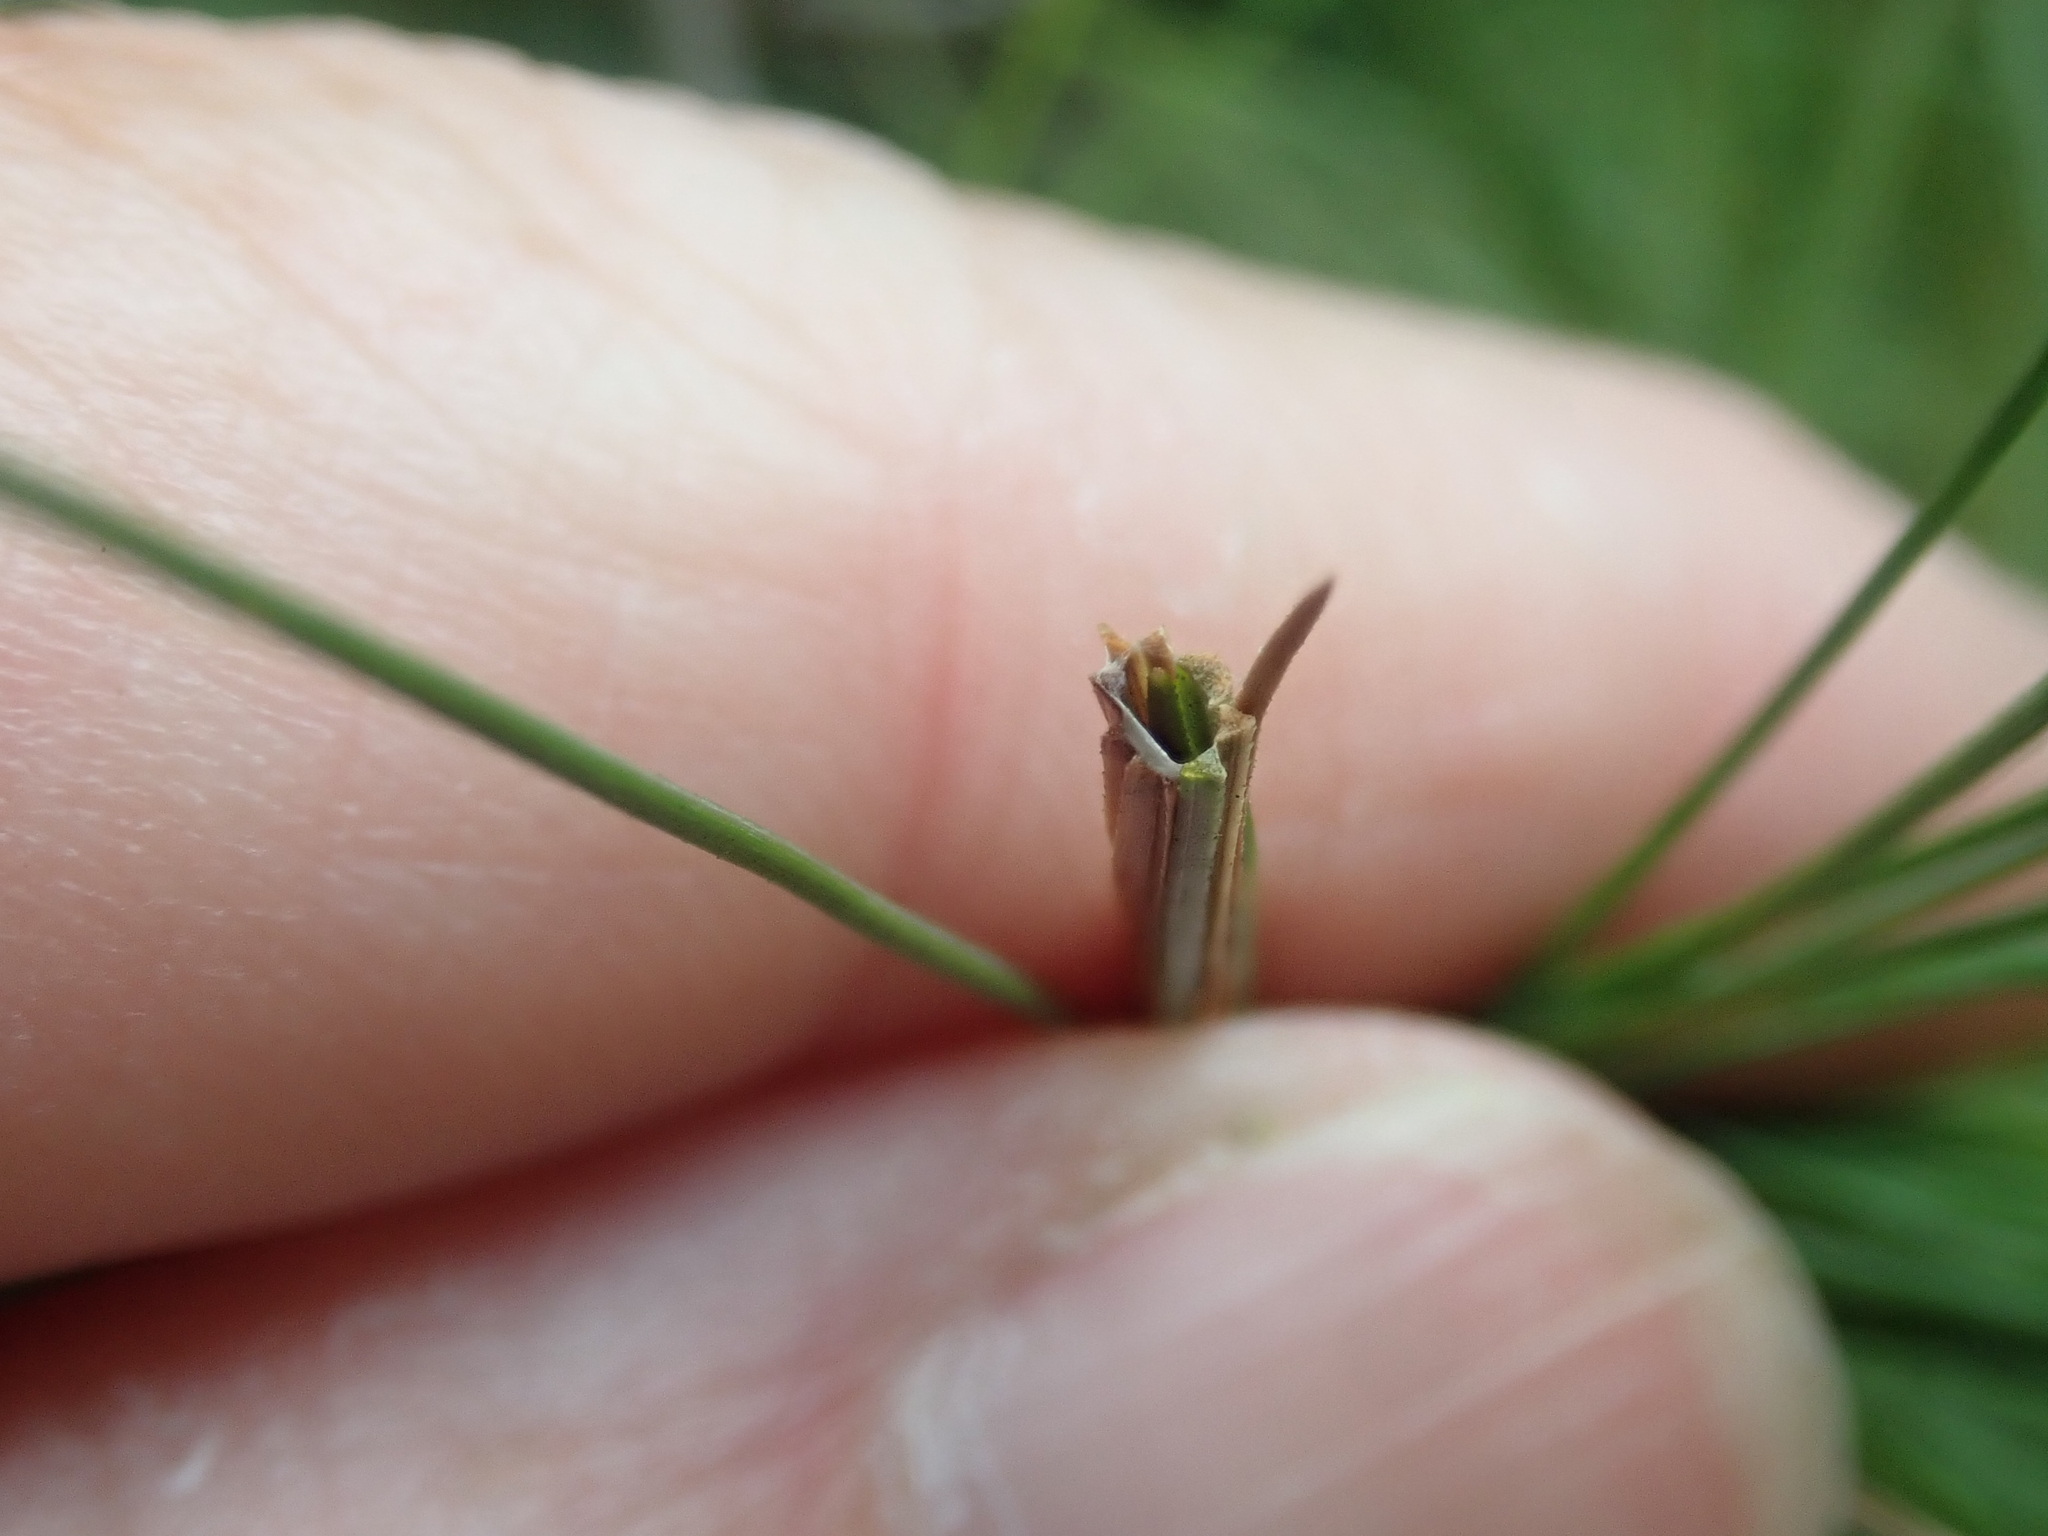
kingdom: Animalia
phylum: Arthropoda
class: Insecta
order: Lepidoptera
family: Tortricidae
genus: Argyrotaenia
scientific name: Argyrotaenia pinatubana
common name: Pine tube moth
